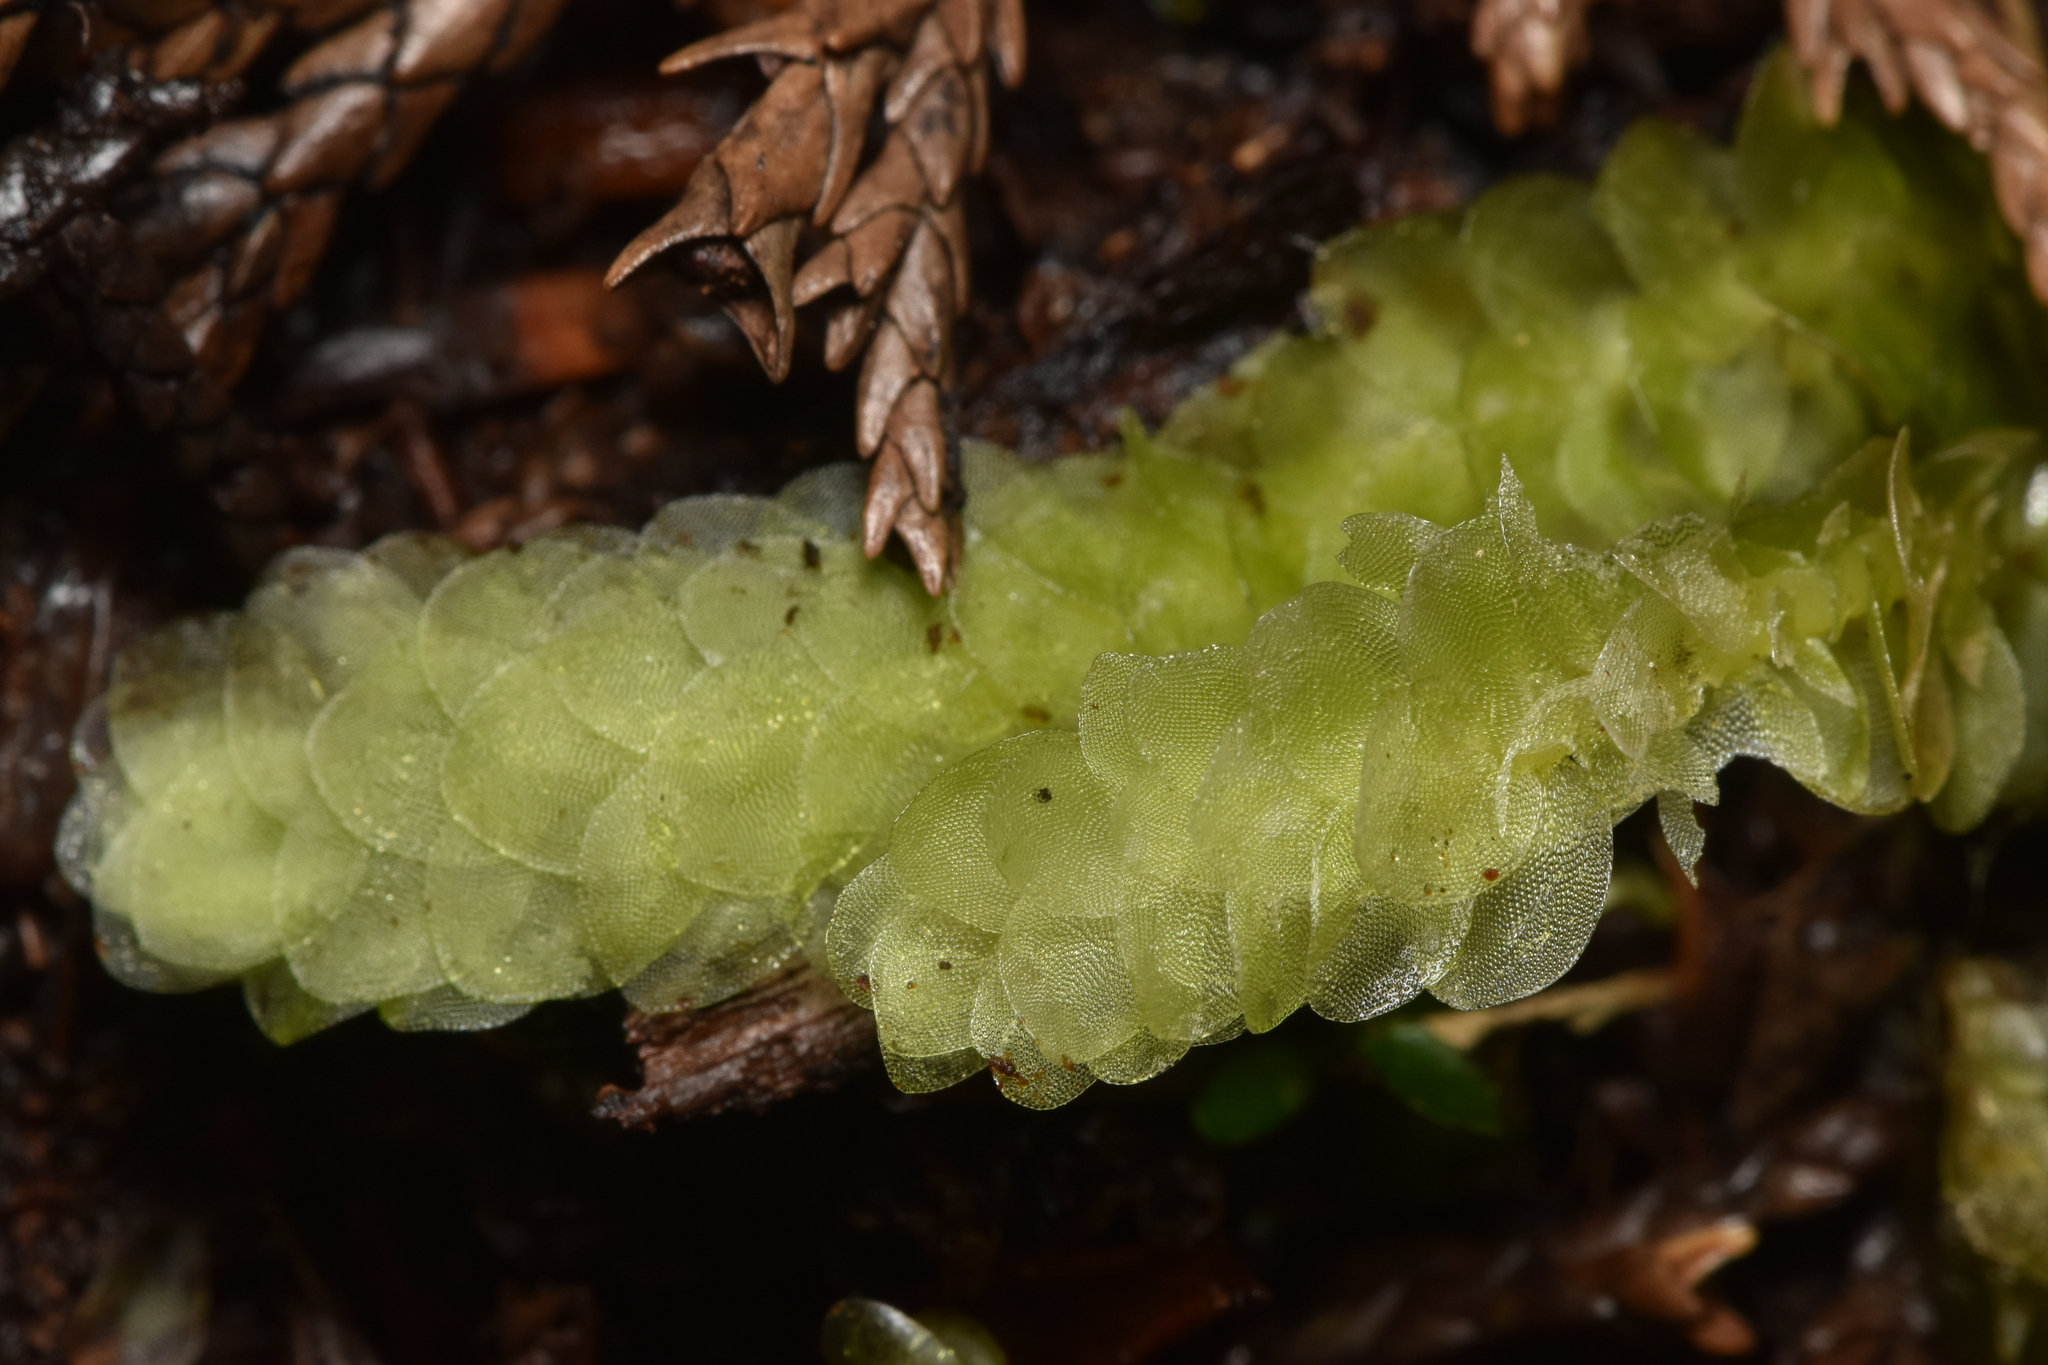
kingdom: Plantae
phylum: Bryophyta
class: Bryopsida
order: Hookeriales
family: Hookeriaceae
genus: Hookeria
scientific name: Hookeria lucens
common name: Shining hookeria
